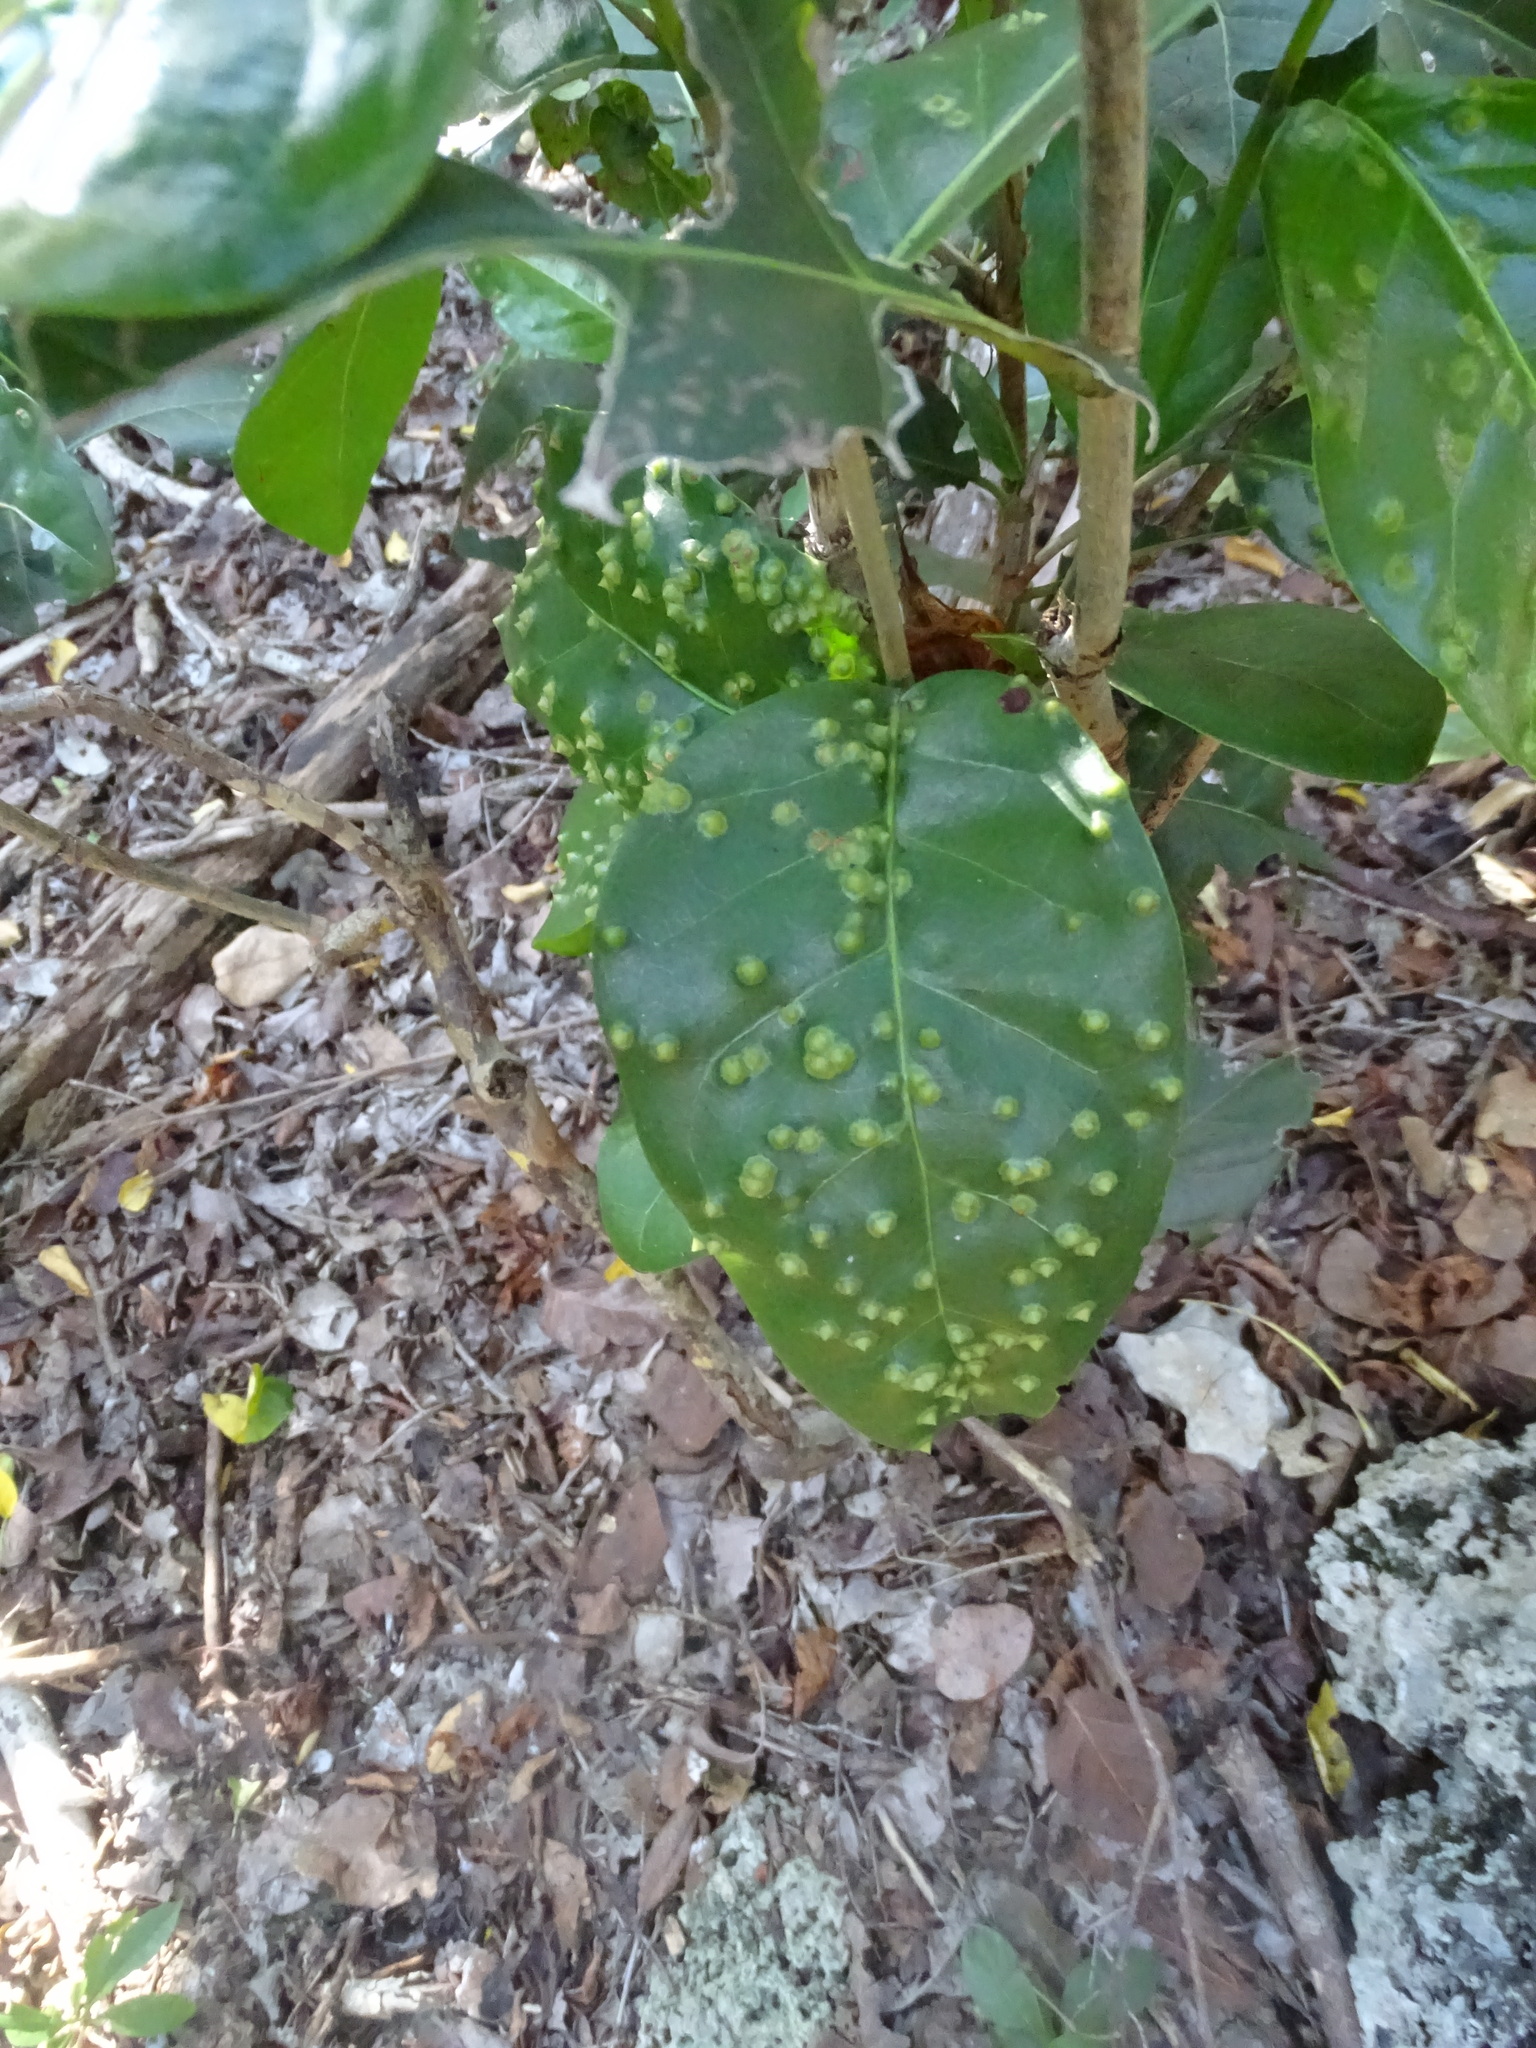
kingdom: Animalia
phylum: Arthropoda
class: Insecta
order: Diptera
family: Cecidomyiidae
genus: Ctenodactylomyia
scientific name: Ctenodactylomyia watsoni
